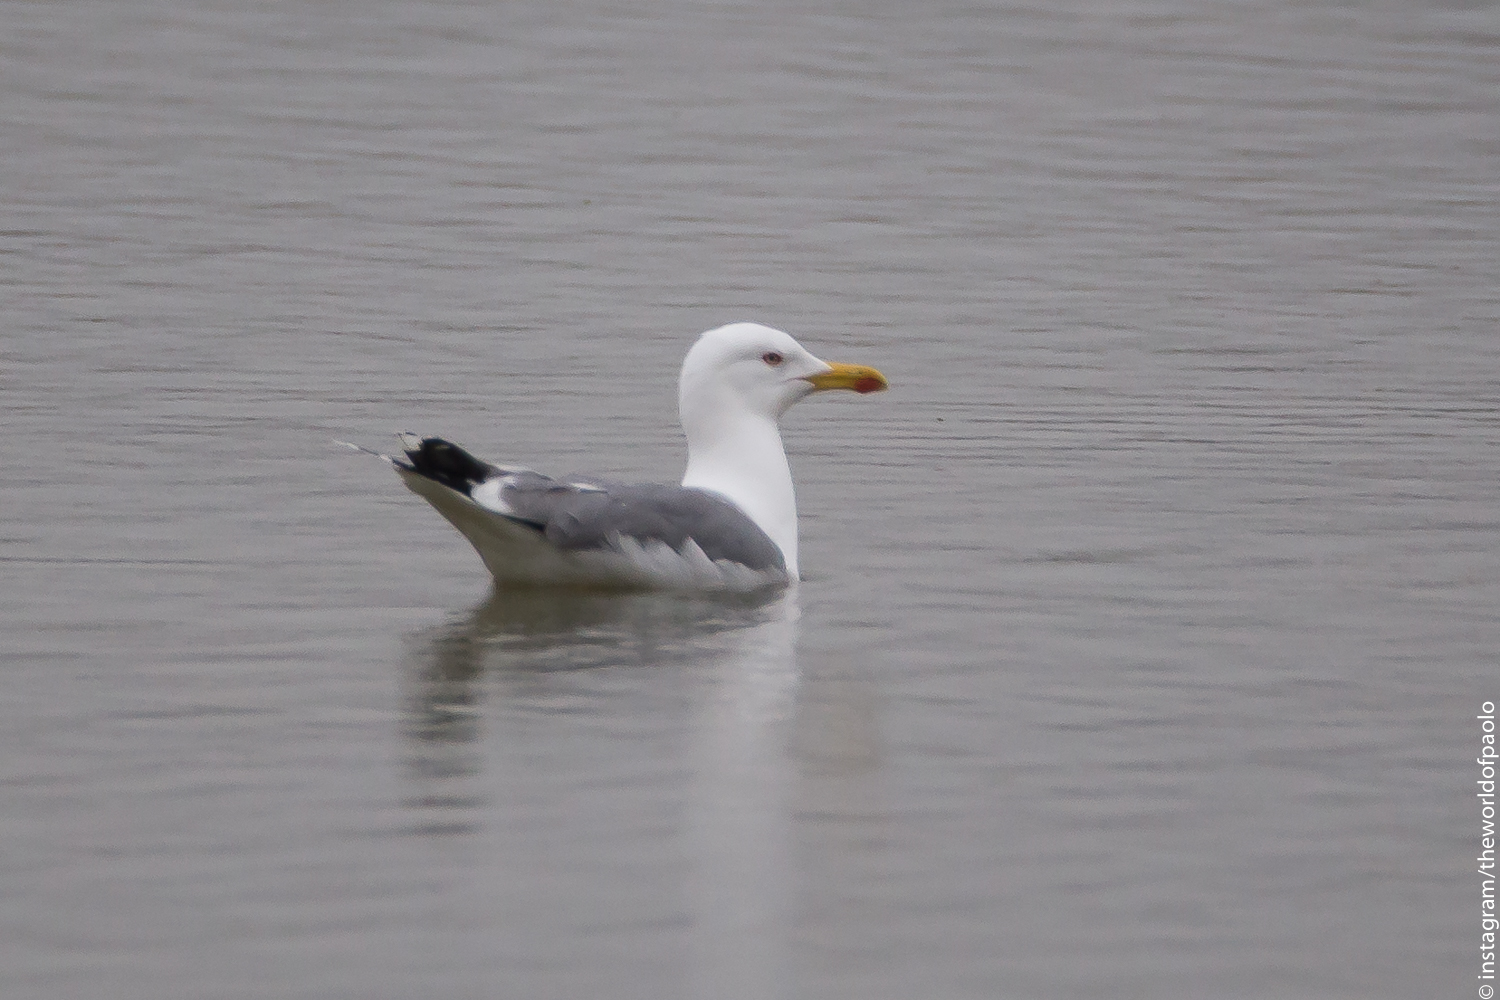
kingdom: Animalia
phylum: Chordata
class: Aves
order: Charadriiformes
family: Laridae
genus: Larus
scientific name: Larus michahellis
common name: Yellow-legged gull
